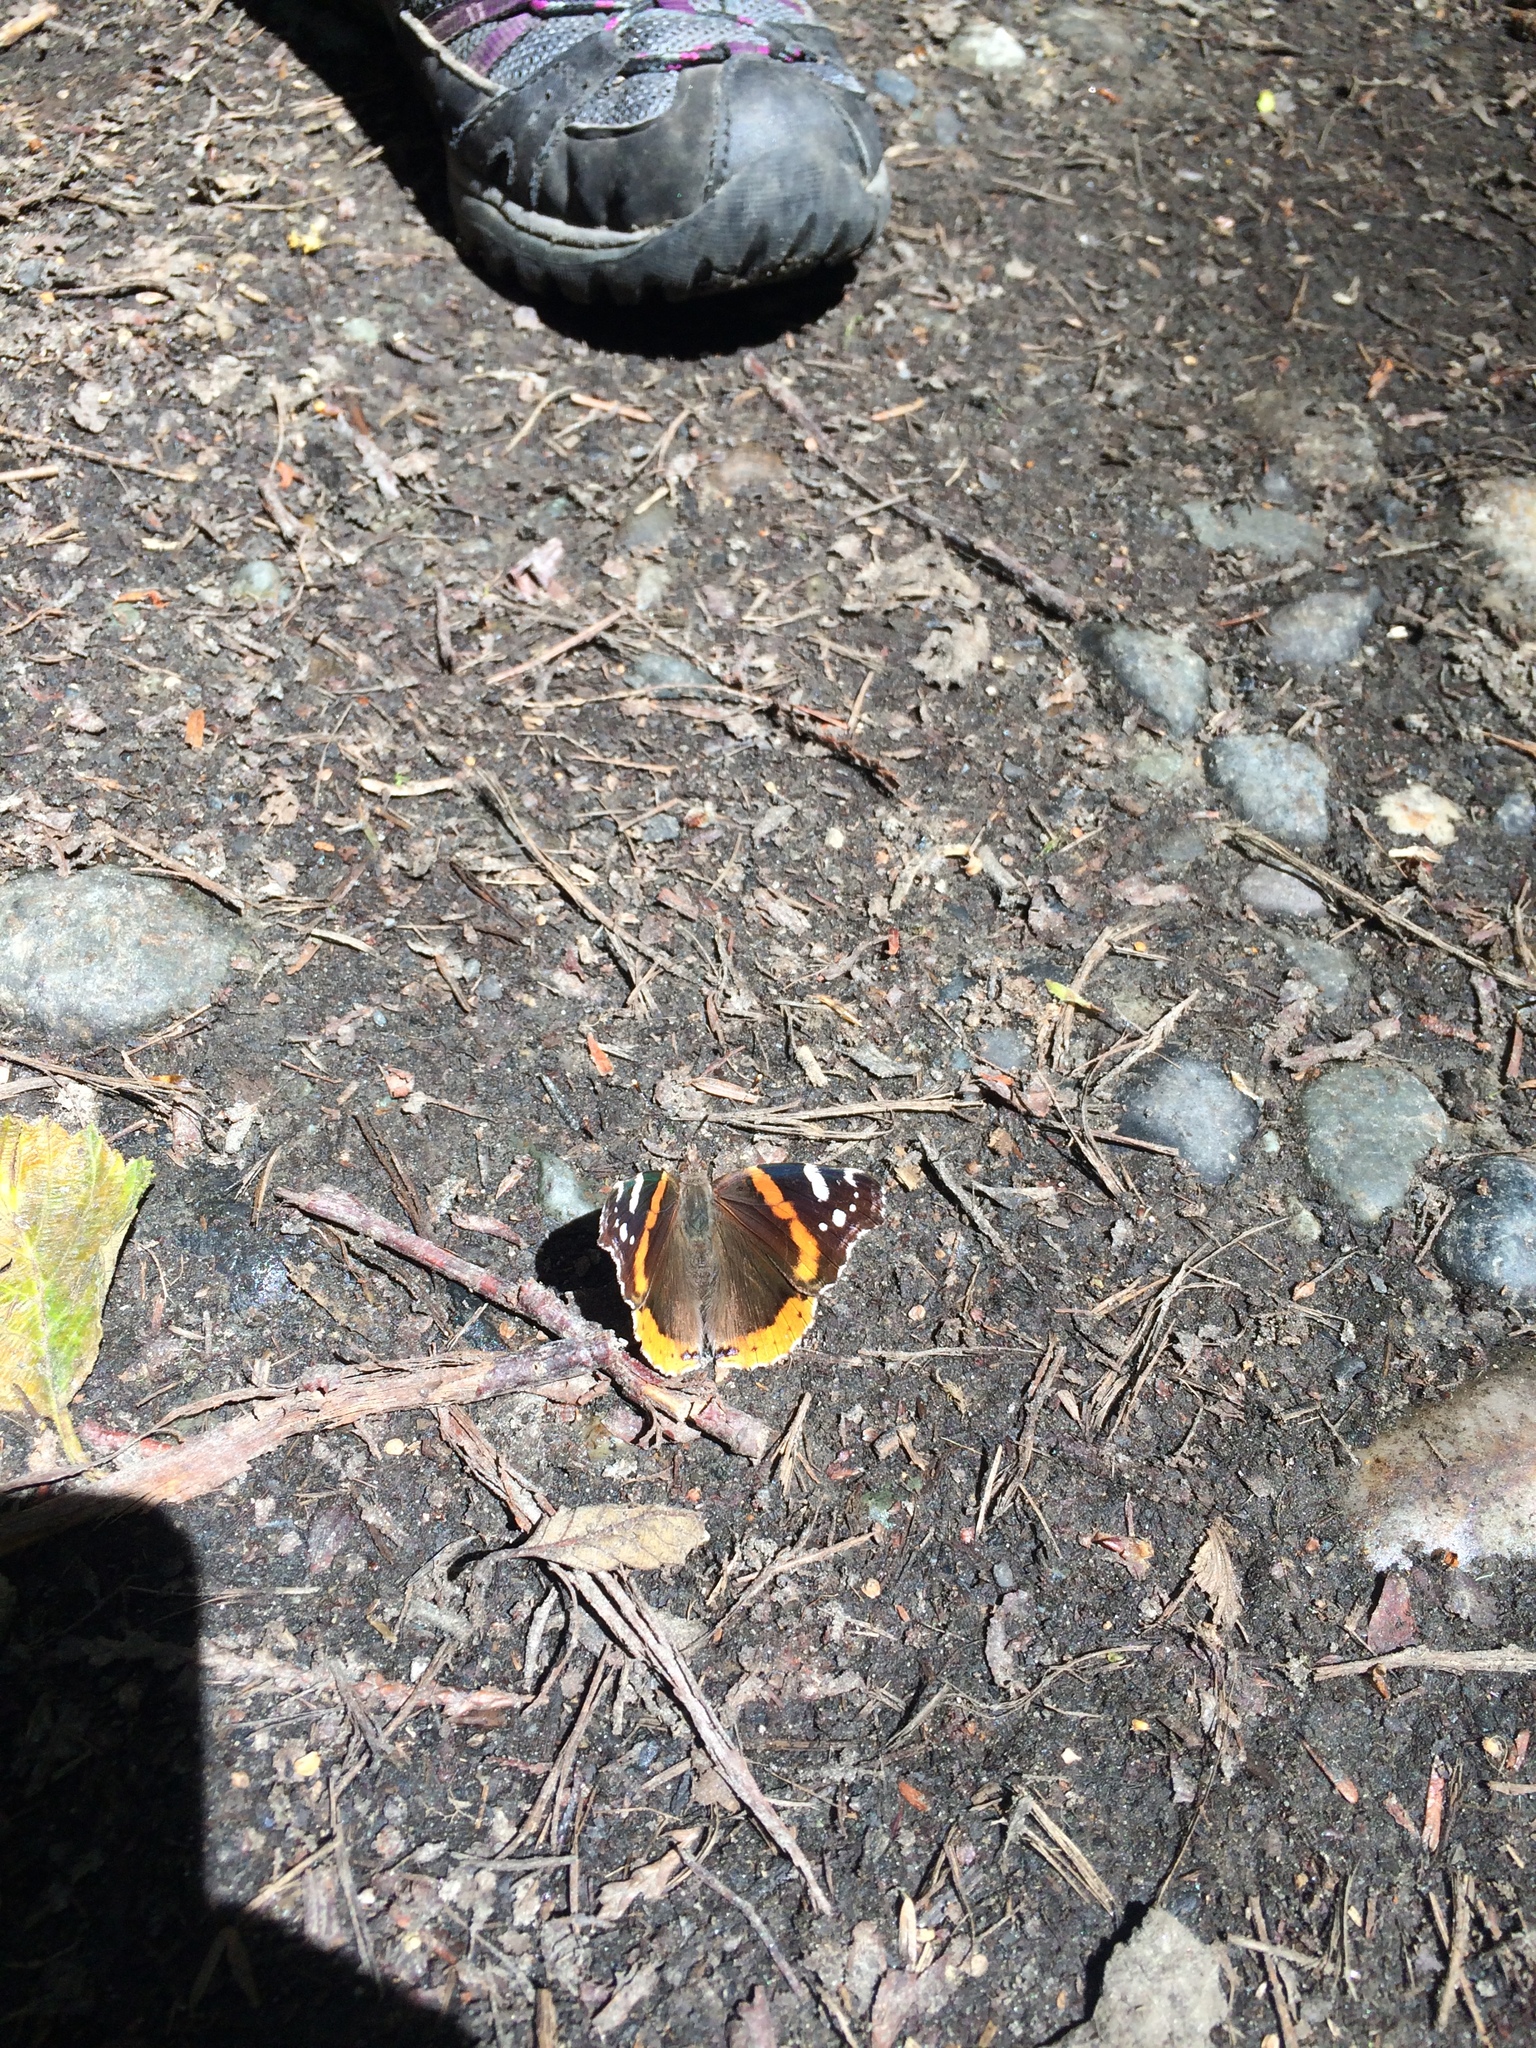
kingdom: Animalia
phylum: Arthropoda
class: Insecta
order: Lepidoptera
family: Nymphalidae
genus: Vanessa
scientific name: Vanessa atalanta
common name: Red admiral
